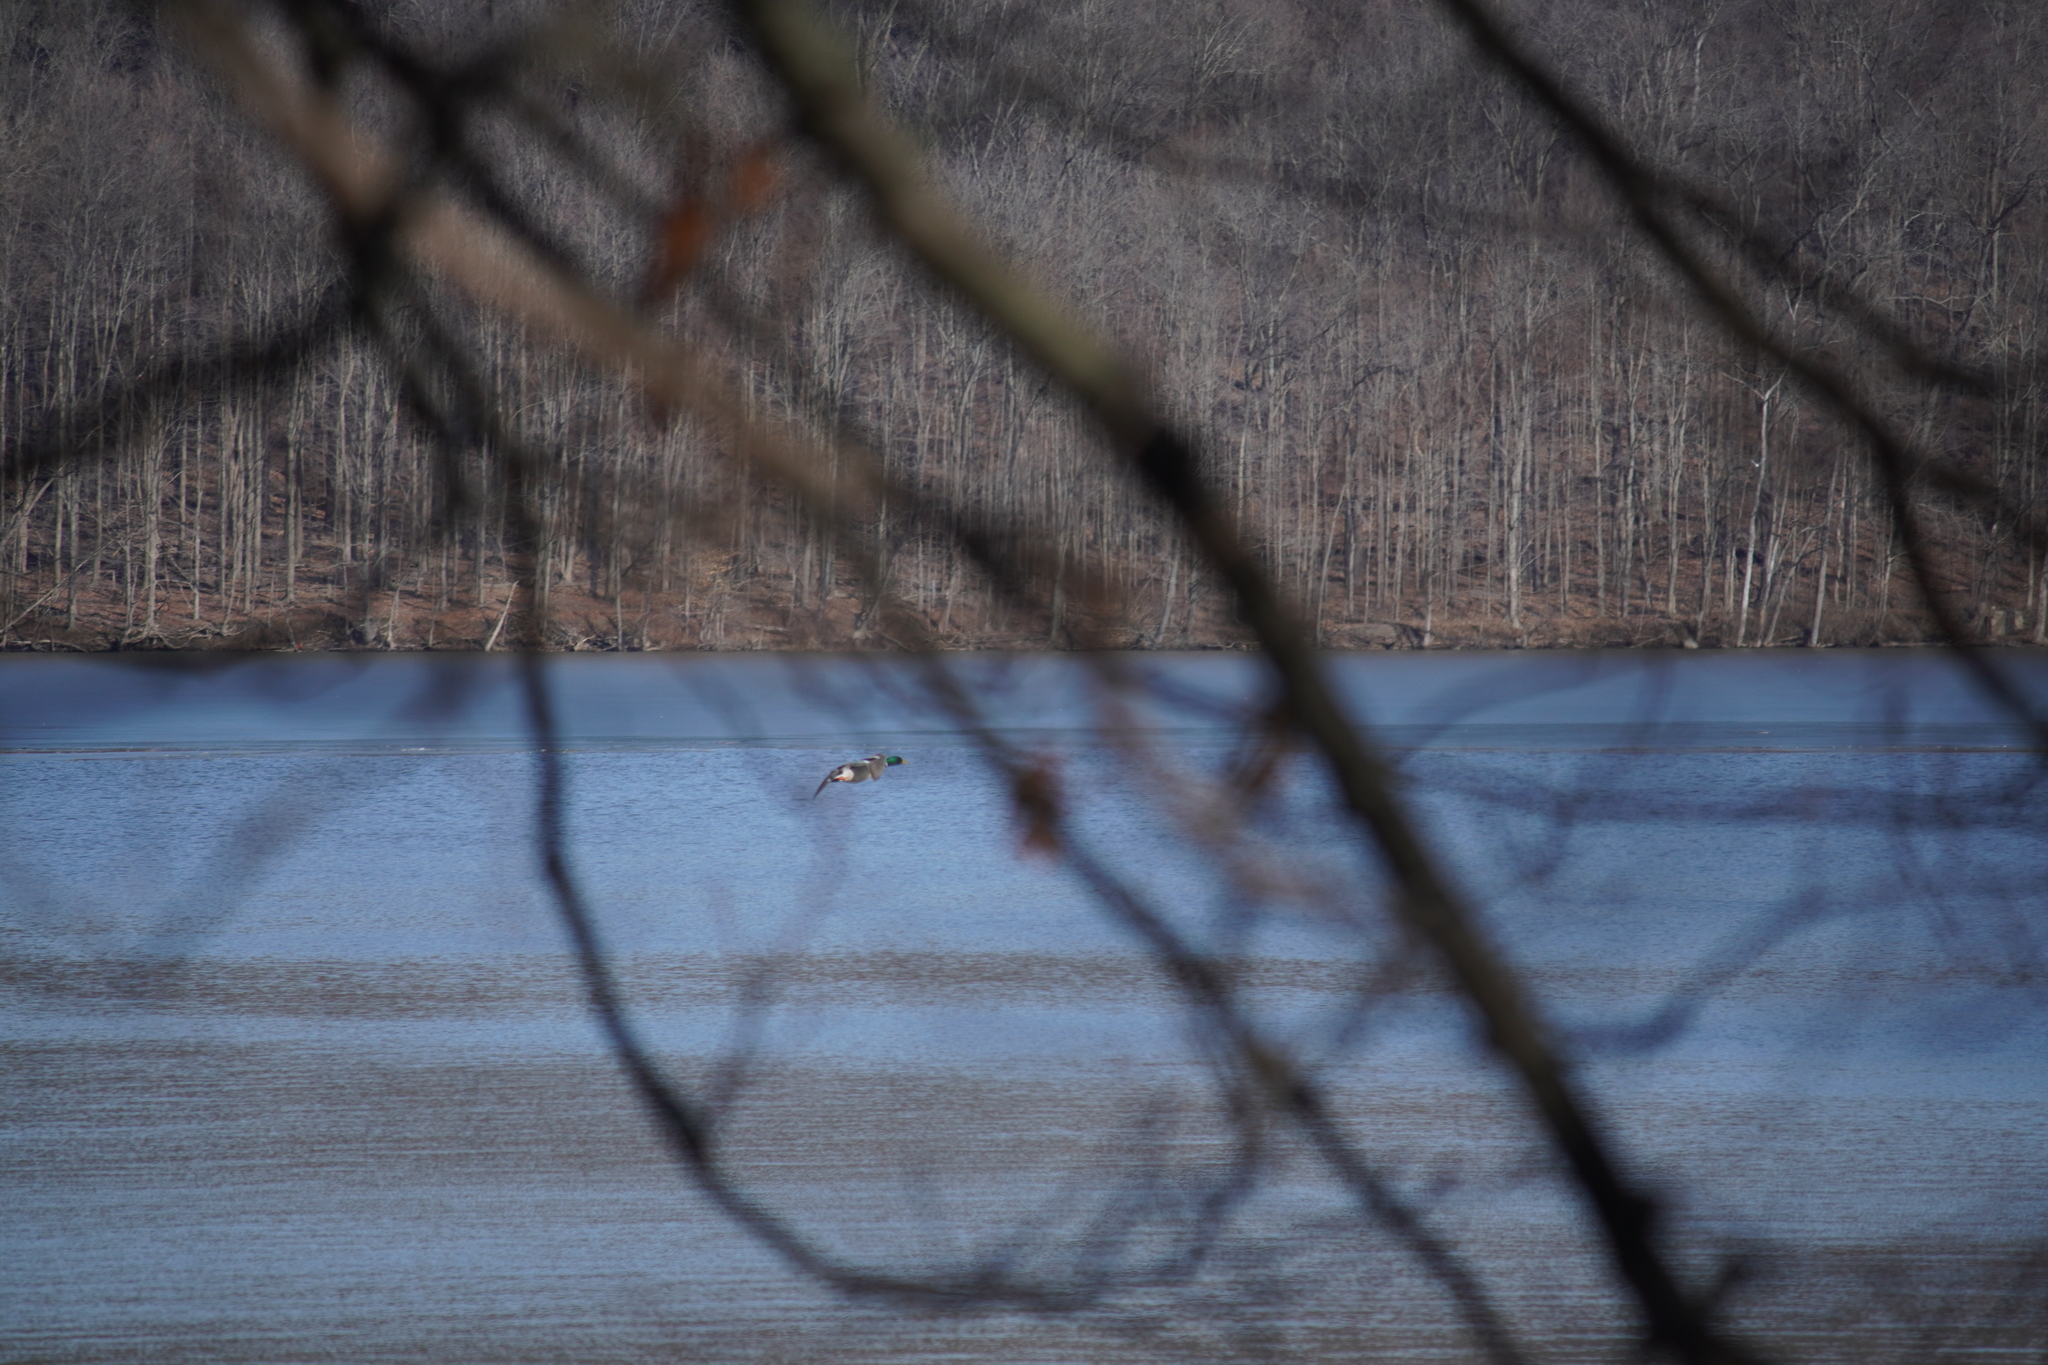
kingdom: Animalia
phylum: Chordata
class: Aves
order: Anseriformes
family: Anatidae
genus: Anas
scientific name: Anas platyrhynchos
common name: Mallard
